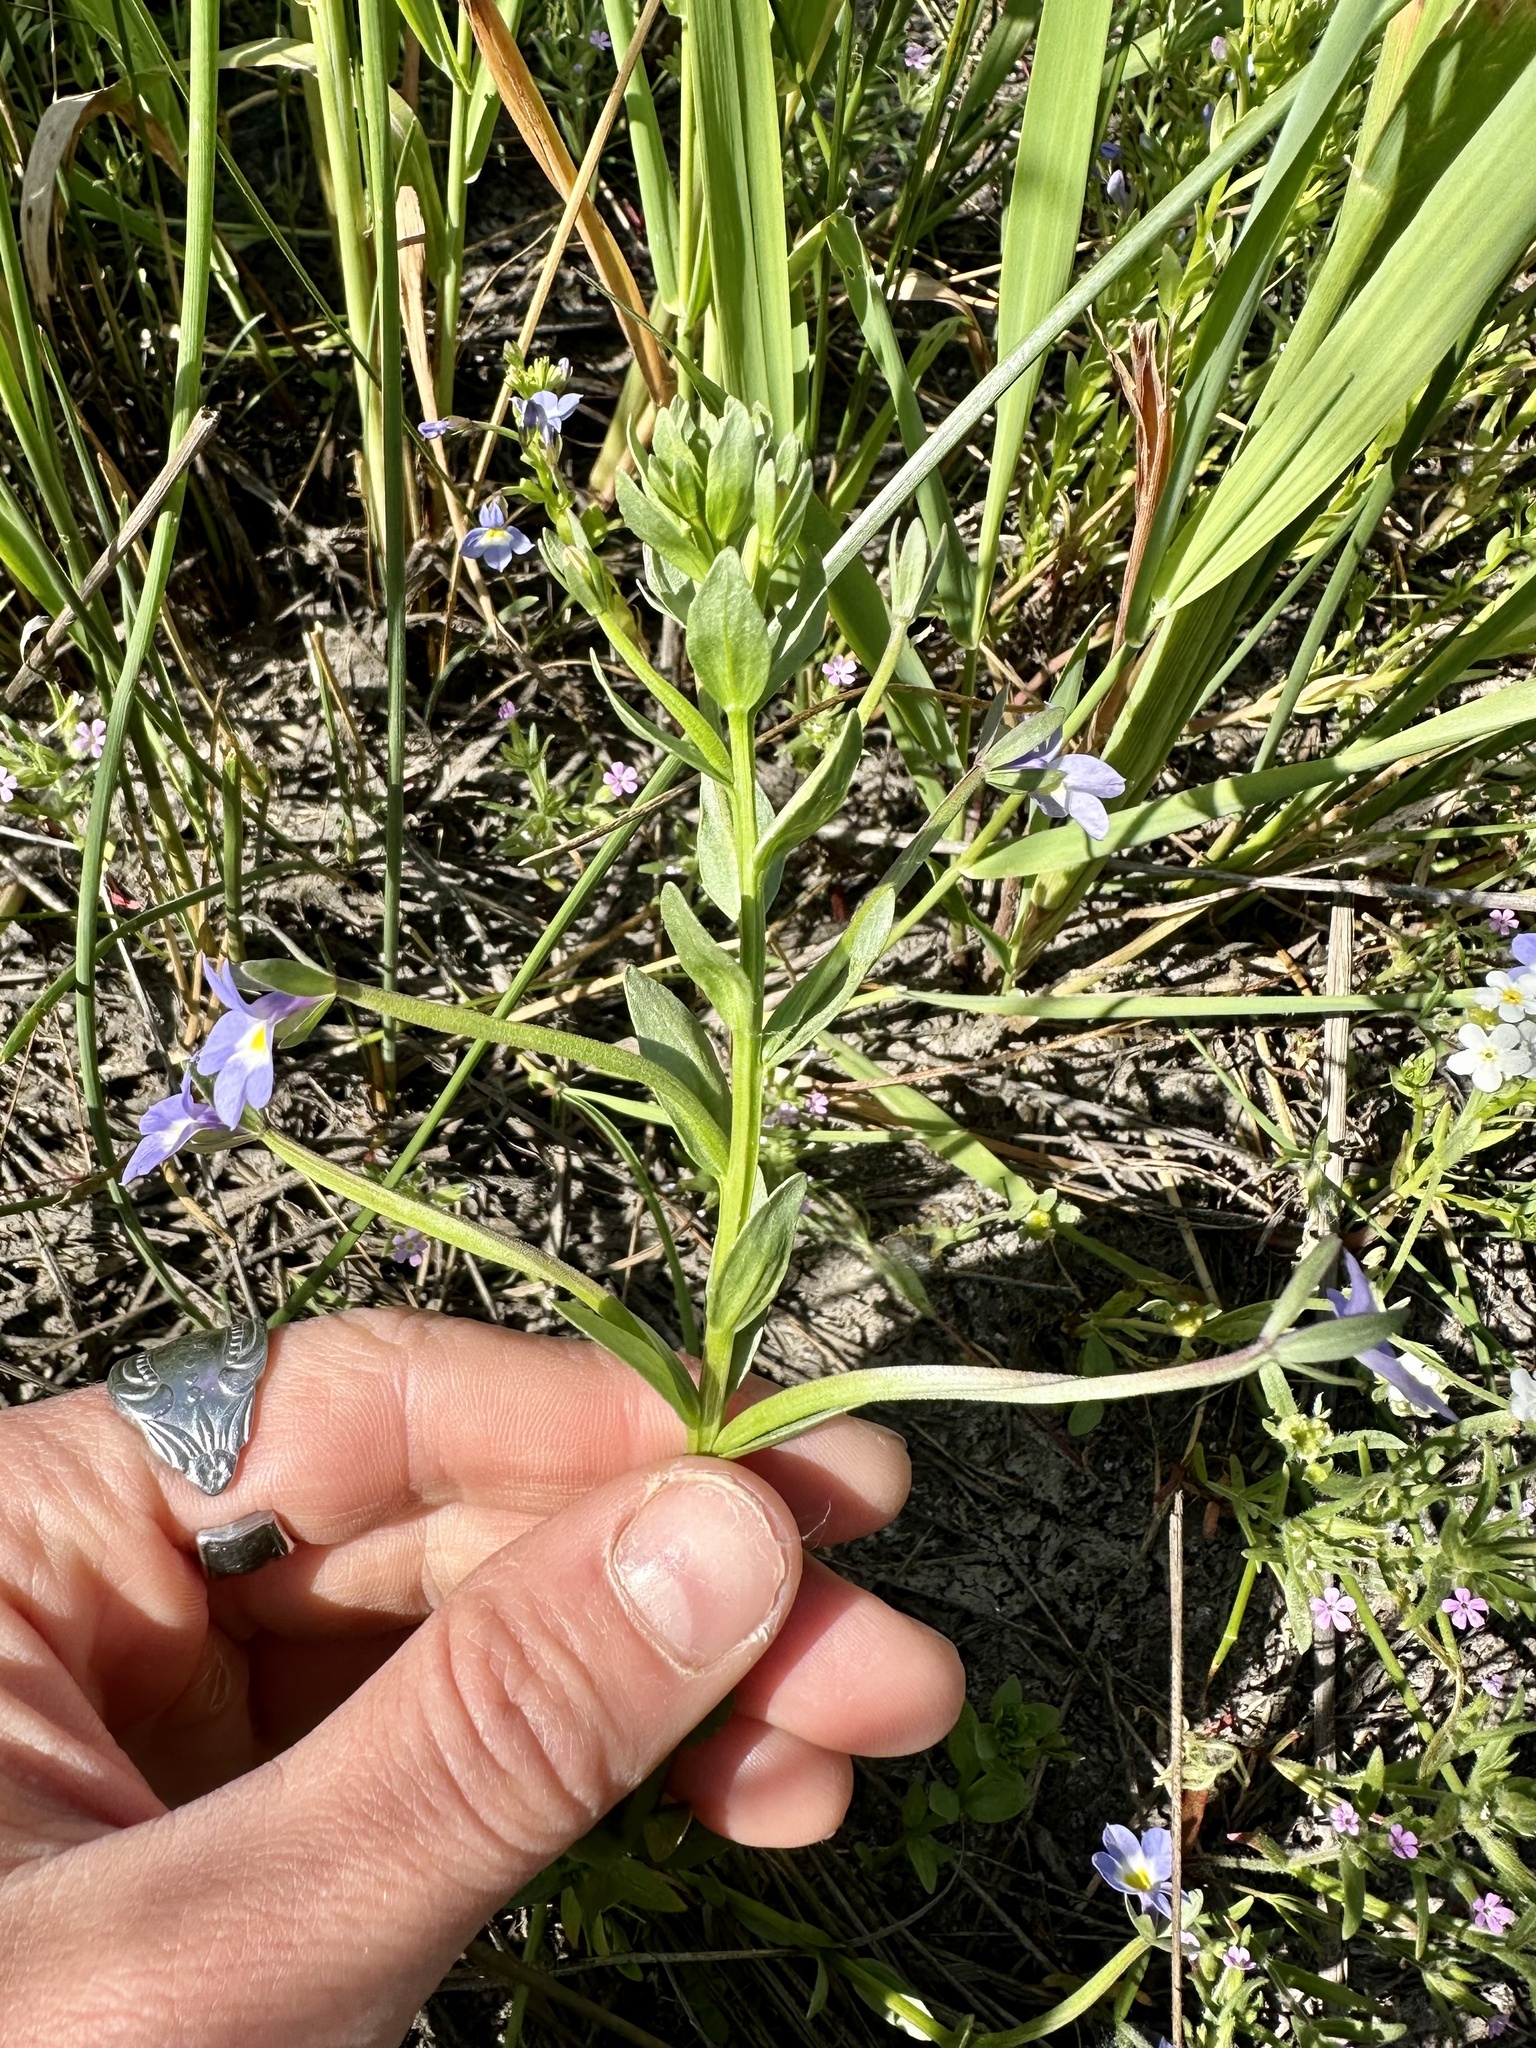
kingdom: Plantae
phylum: Tracheophyta
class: Magnoliopsida
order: Asterales
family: Campanulaceae
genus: Downingia
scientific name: Downingia yina
